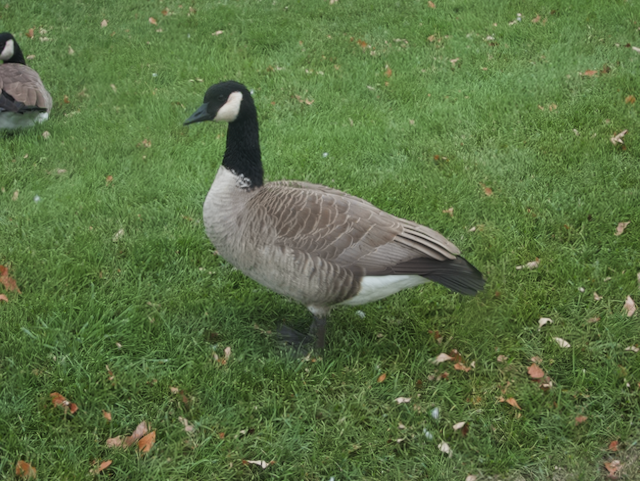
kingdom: Animalia
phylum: Chordata
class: Aves
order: Anseriformes
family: Anatidae
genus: Branta
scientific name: Branta canadensis
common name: Canada goose
